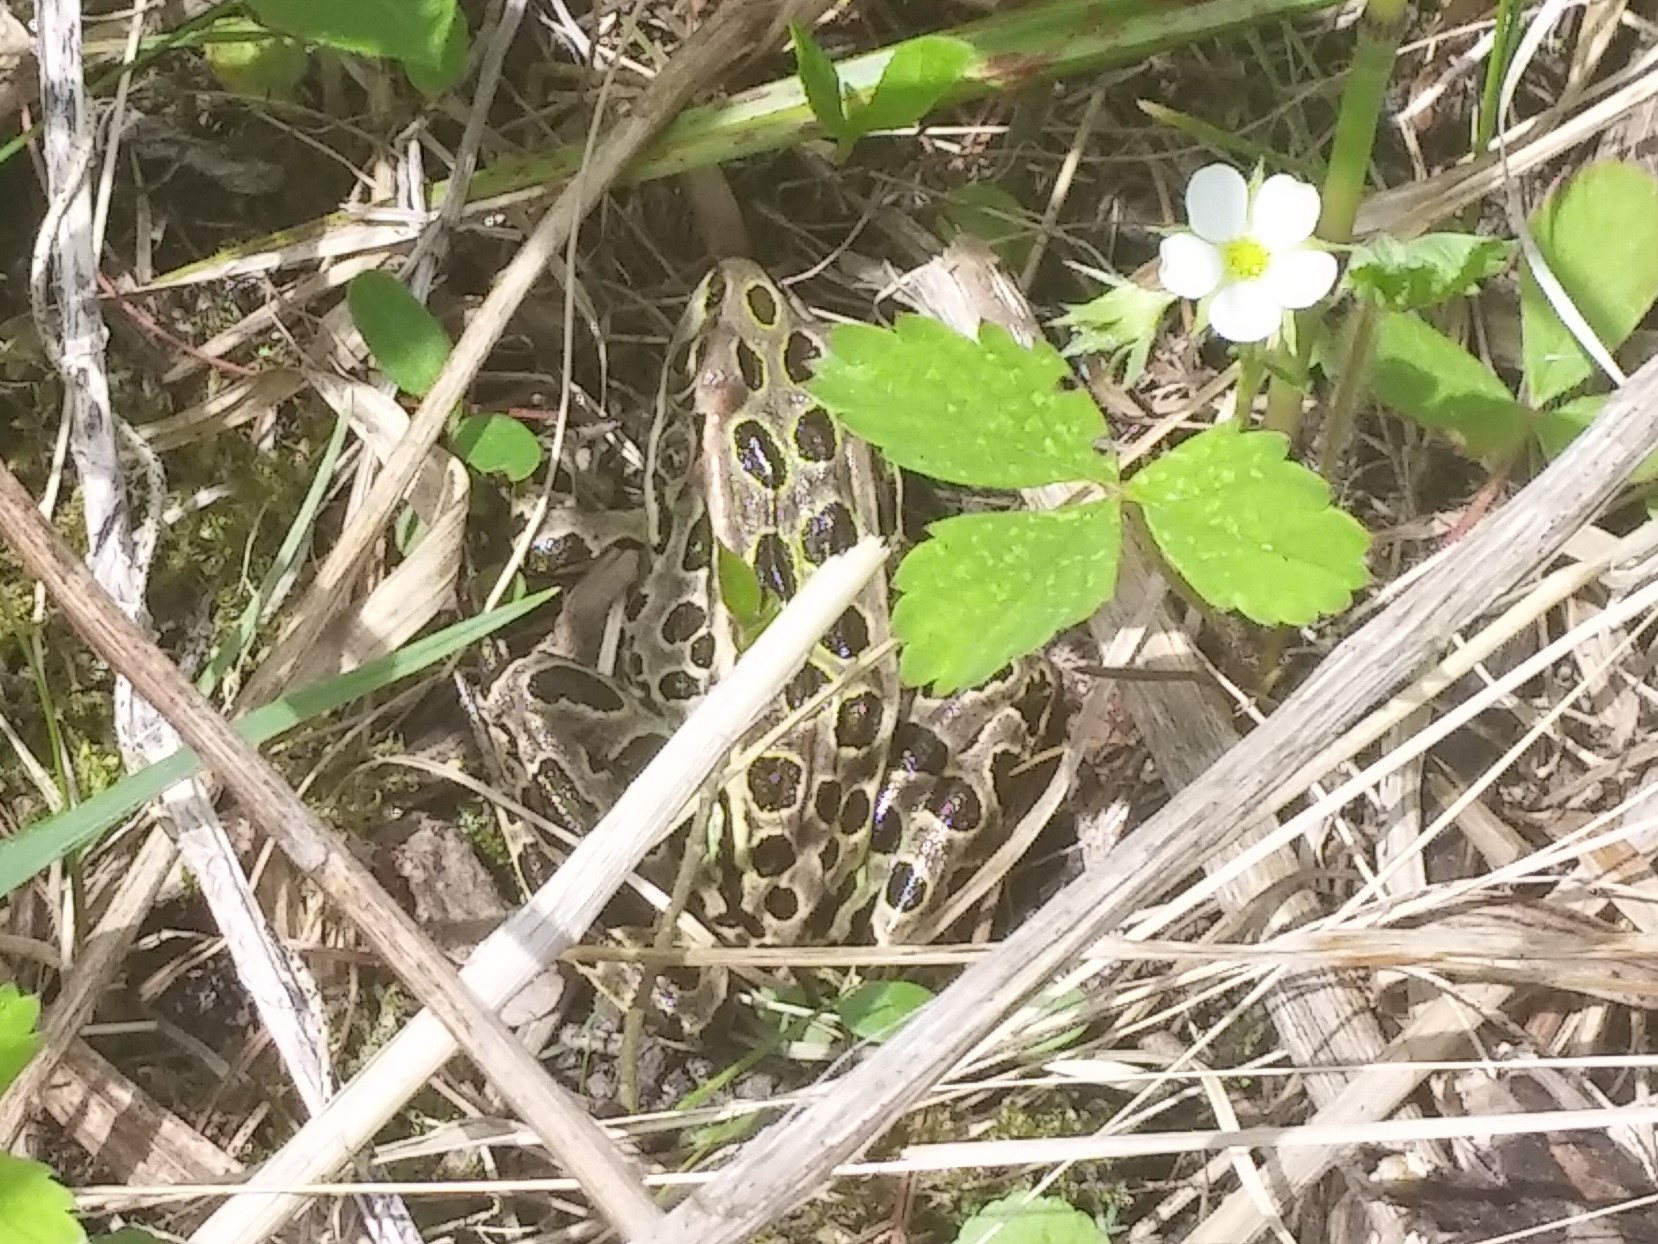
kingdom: Animalia
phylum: Chordata
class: Amphibia
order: Anura
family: Ranidae
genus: Lithobates
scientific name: Lithobates pipiens
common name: Northern leopard frog
